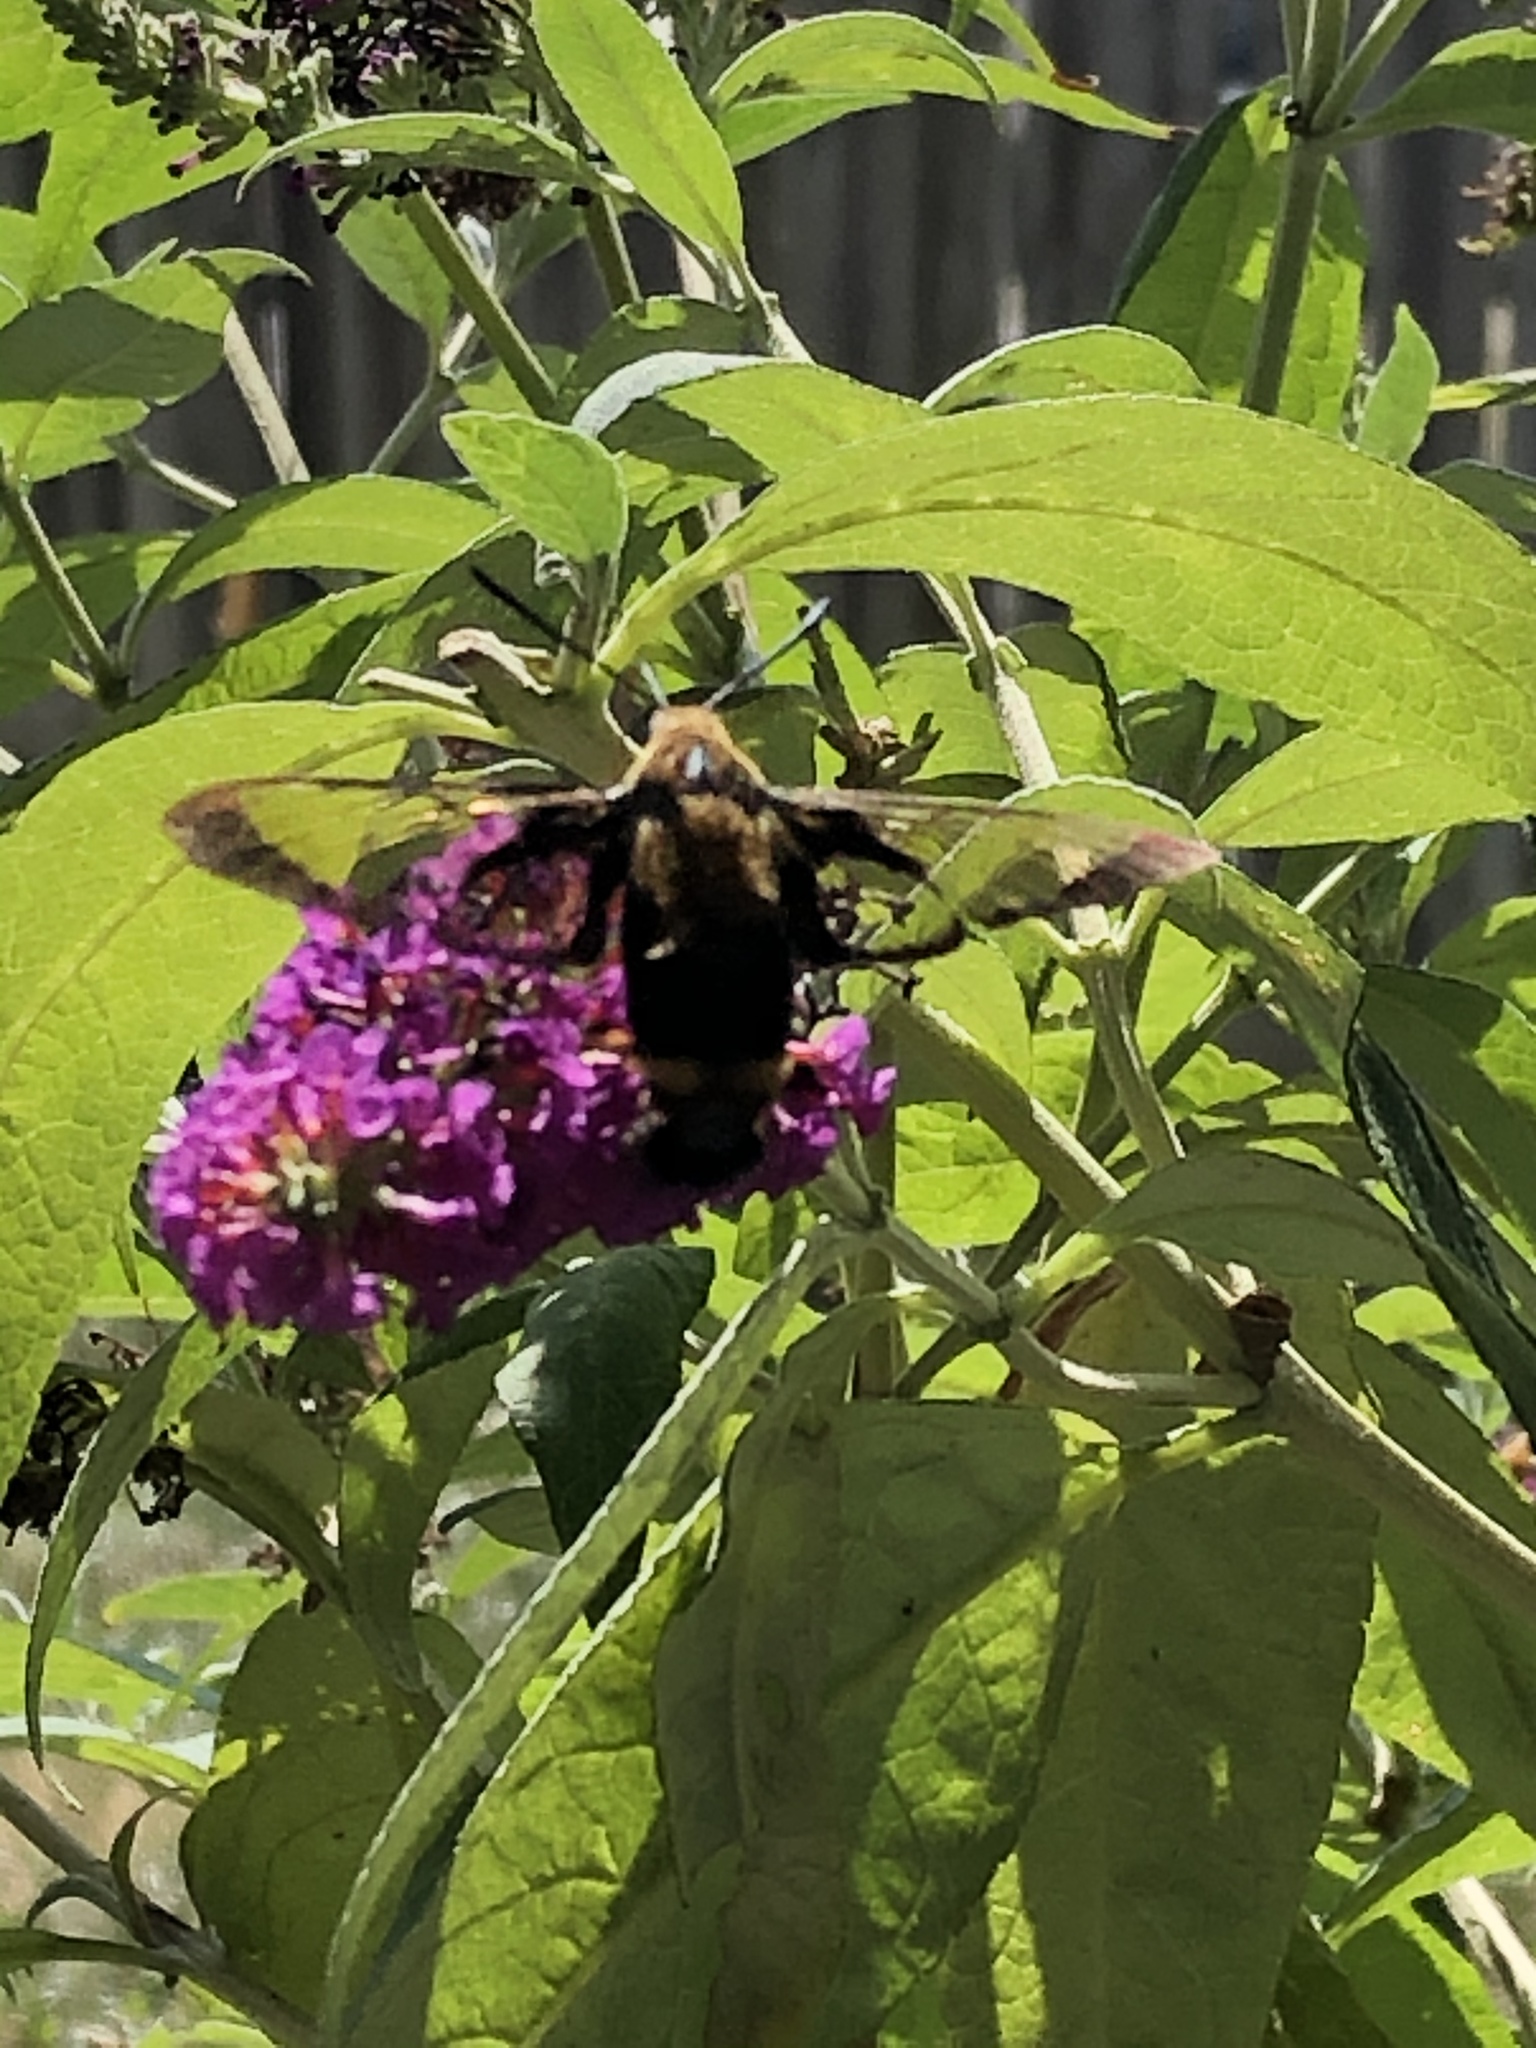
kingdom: Animalia
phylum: Arthropoda
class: Insecta
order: Lepidoptera
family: Sphingidae
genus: Hemaris
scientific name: Hemaris diffinis
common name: Bumblebee moth
